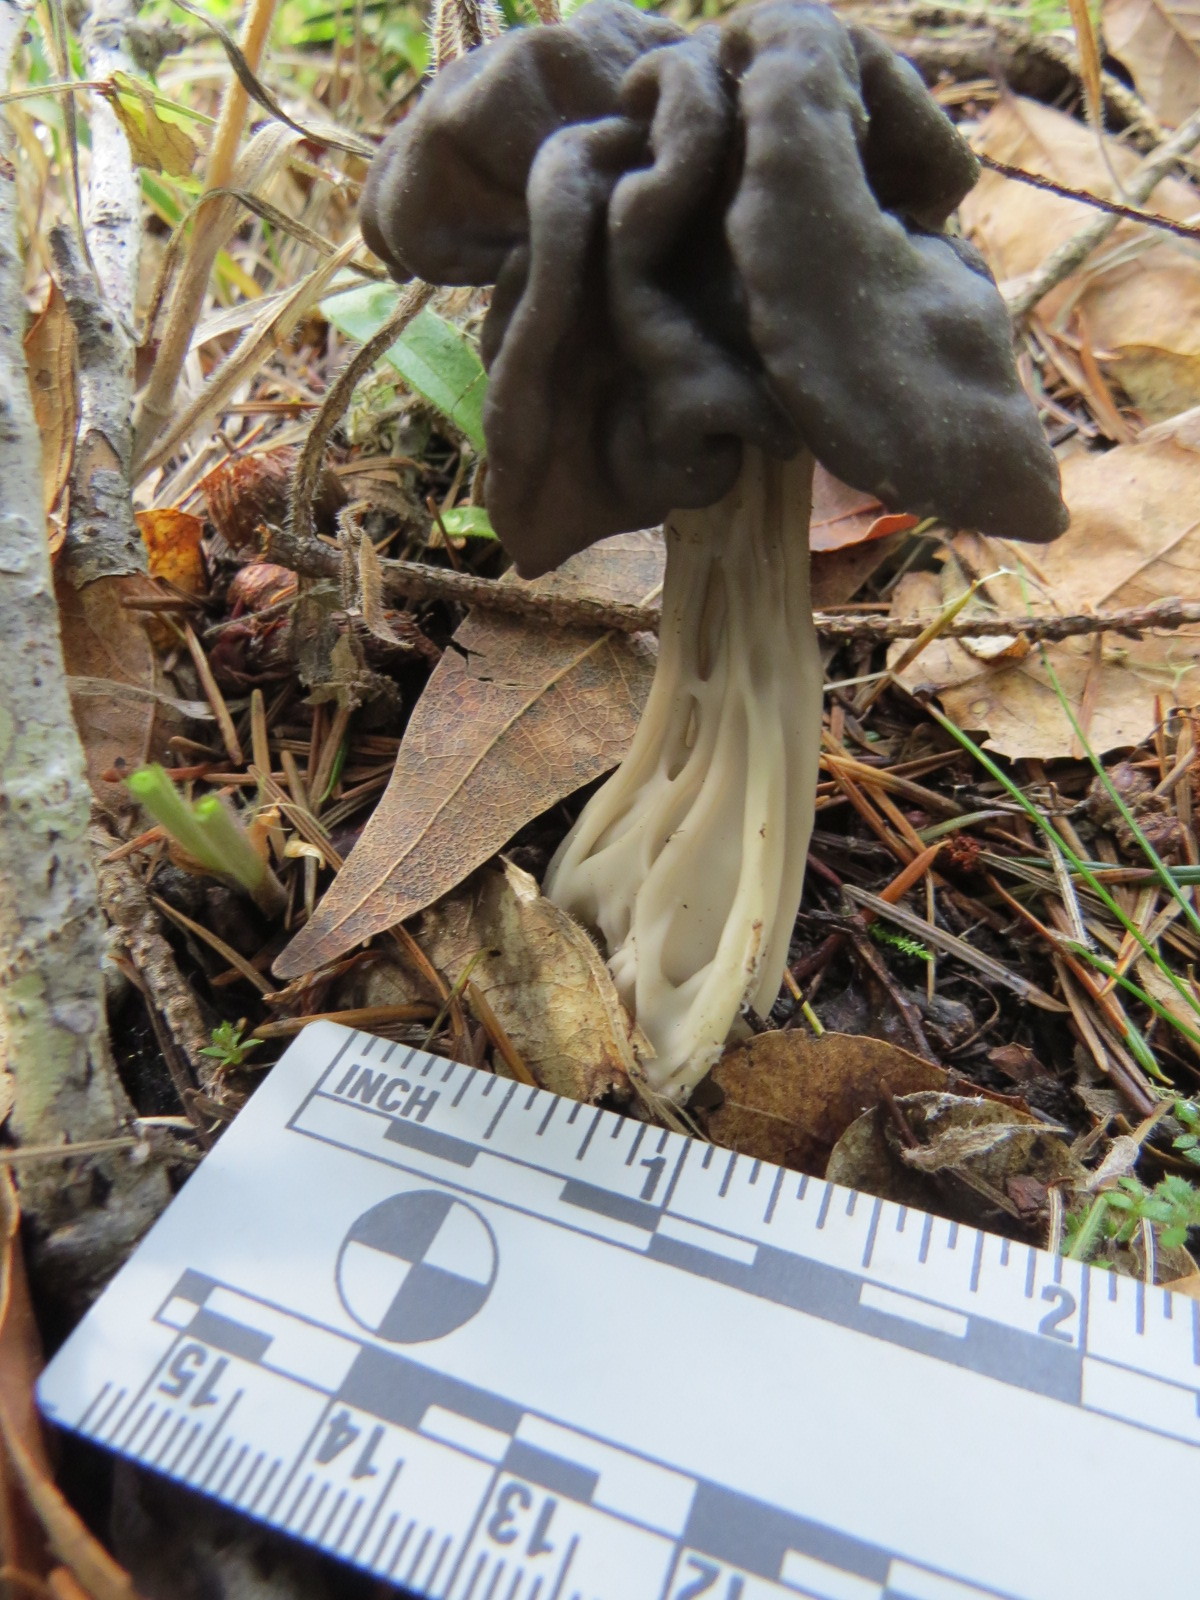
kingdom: Fungi
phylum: Ascomycota
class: Pezizomycetes
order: Pezizales
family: Helvellaceae
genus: Helvella
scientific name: Helvella vespertina
